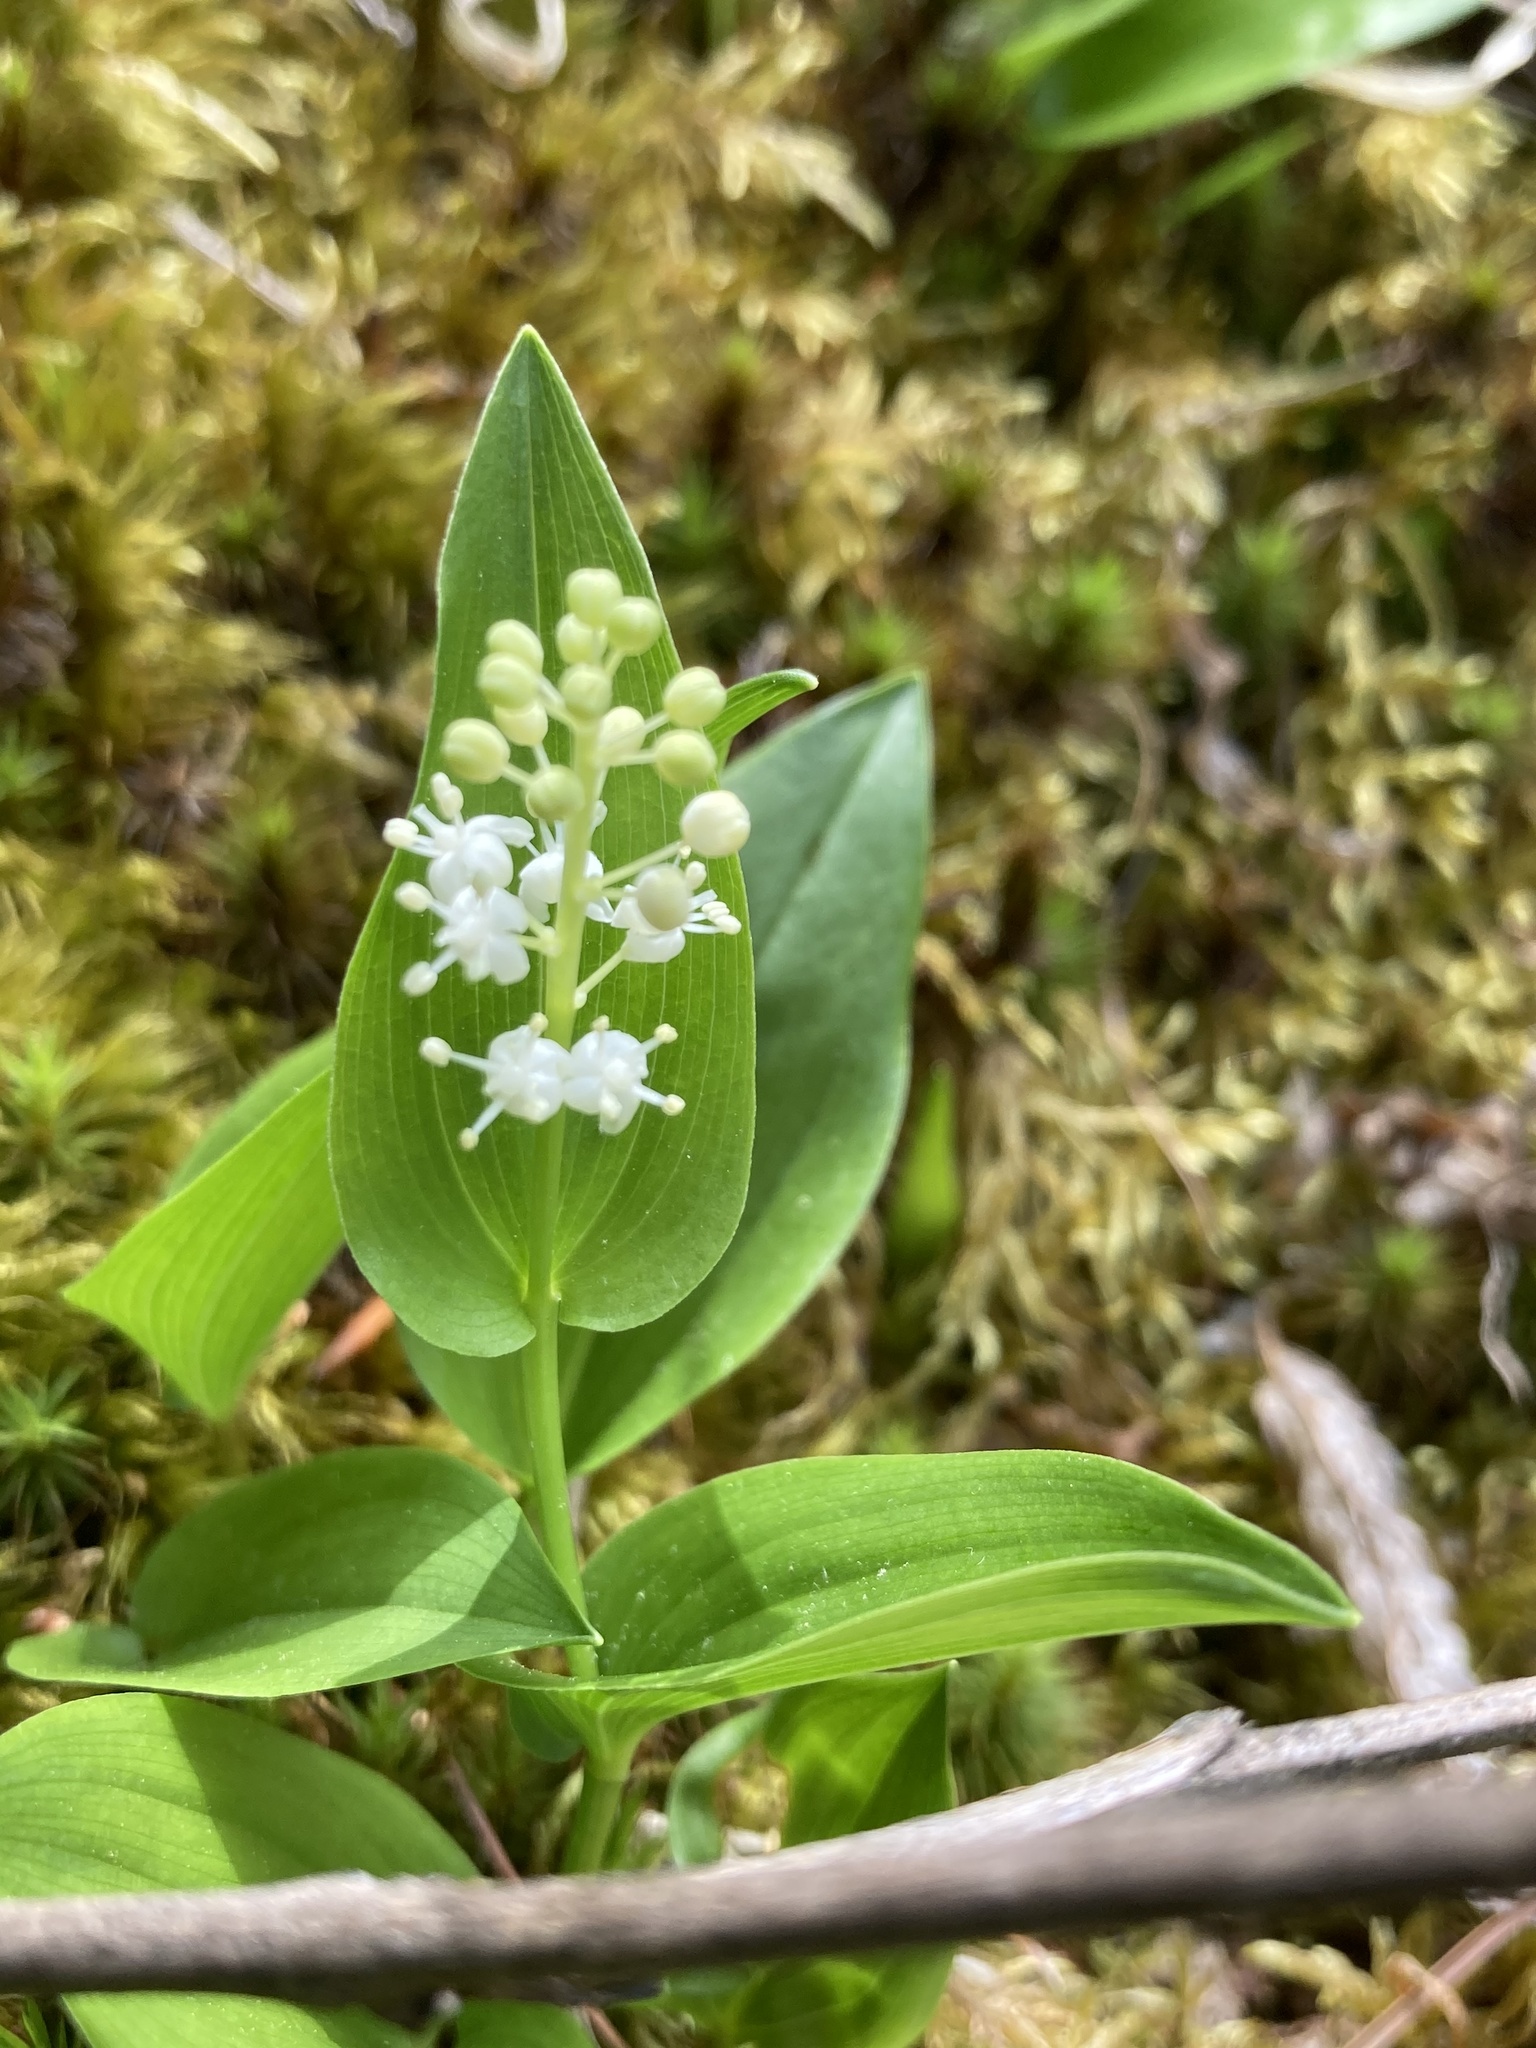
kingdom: Plantae
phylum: Tracheophyta
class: Liliopsida
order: Asparagales
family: Asparagaceae
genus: Maianthemum
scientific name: Maianthemum canadense
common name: False lily-of-the-valley
